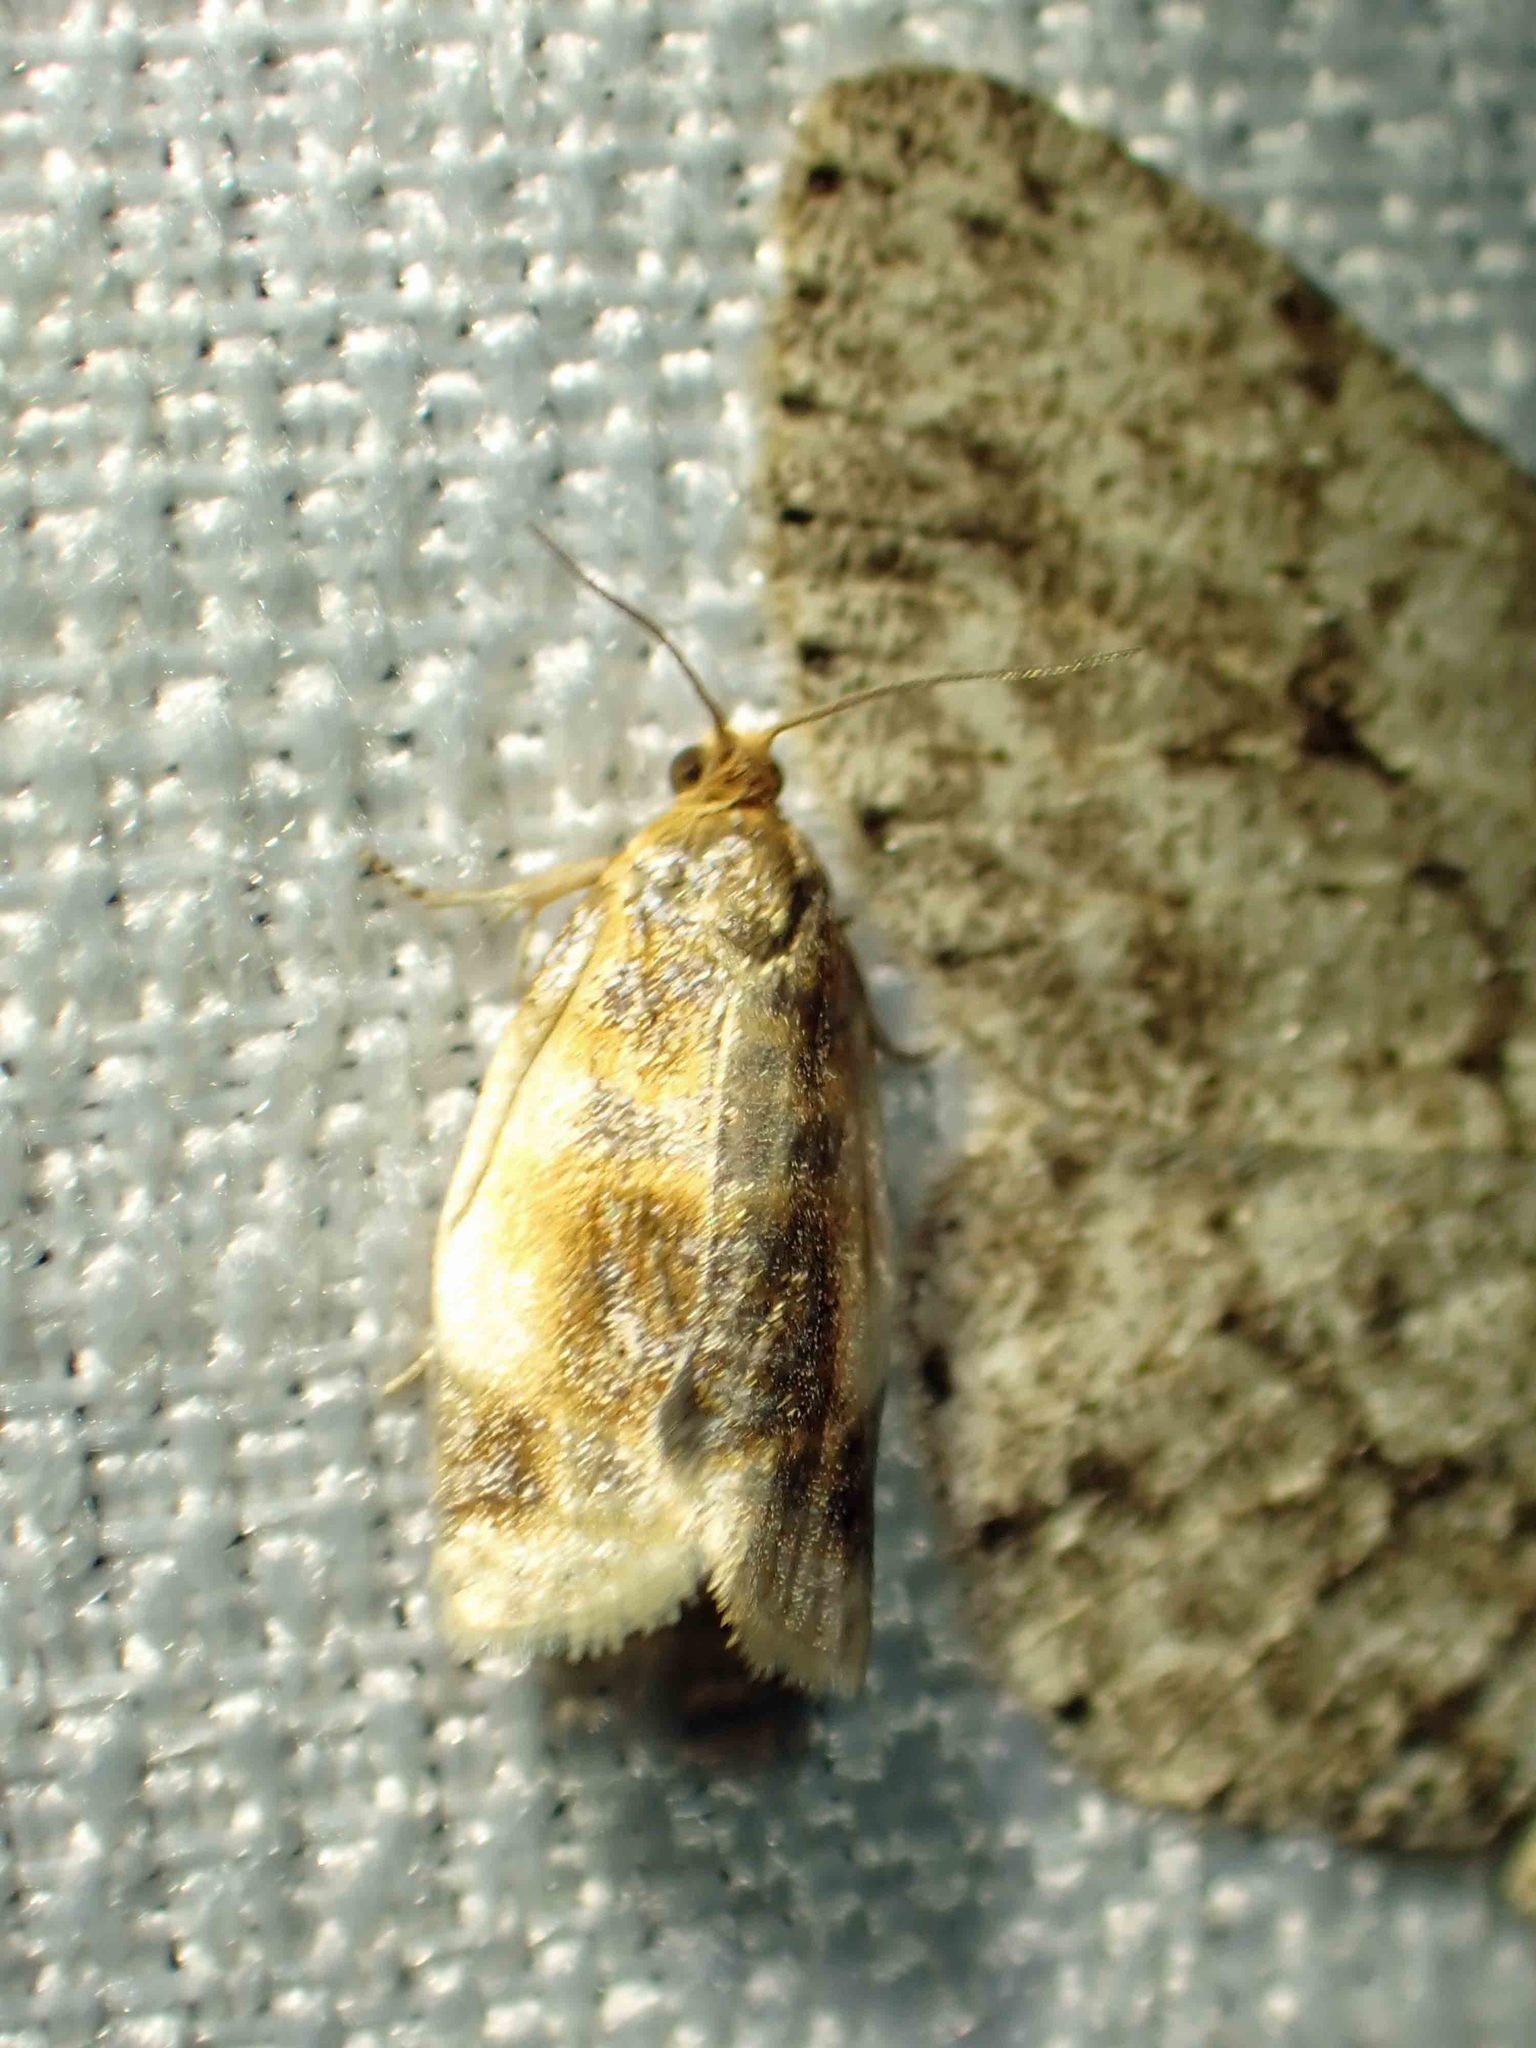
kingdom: Animalia
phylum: Arthropoda
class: Insecta
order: Lepidoptera
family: Tortricidae
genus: Clepsis
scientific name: Clepsis melaleucanus
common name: American apple tortrix
